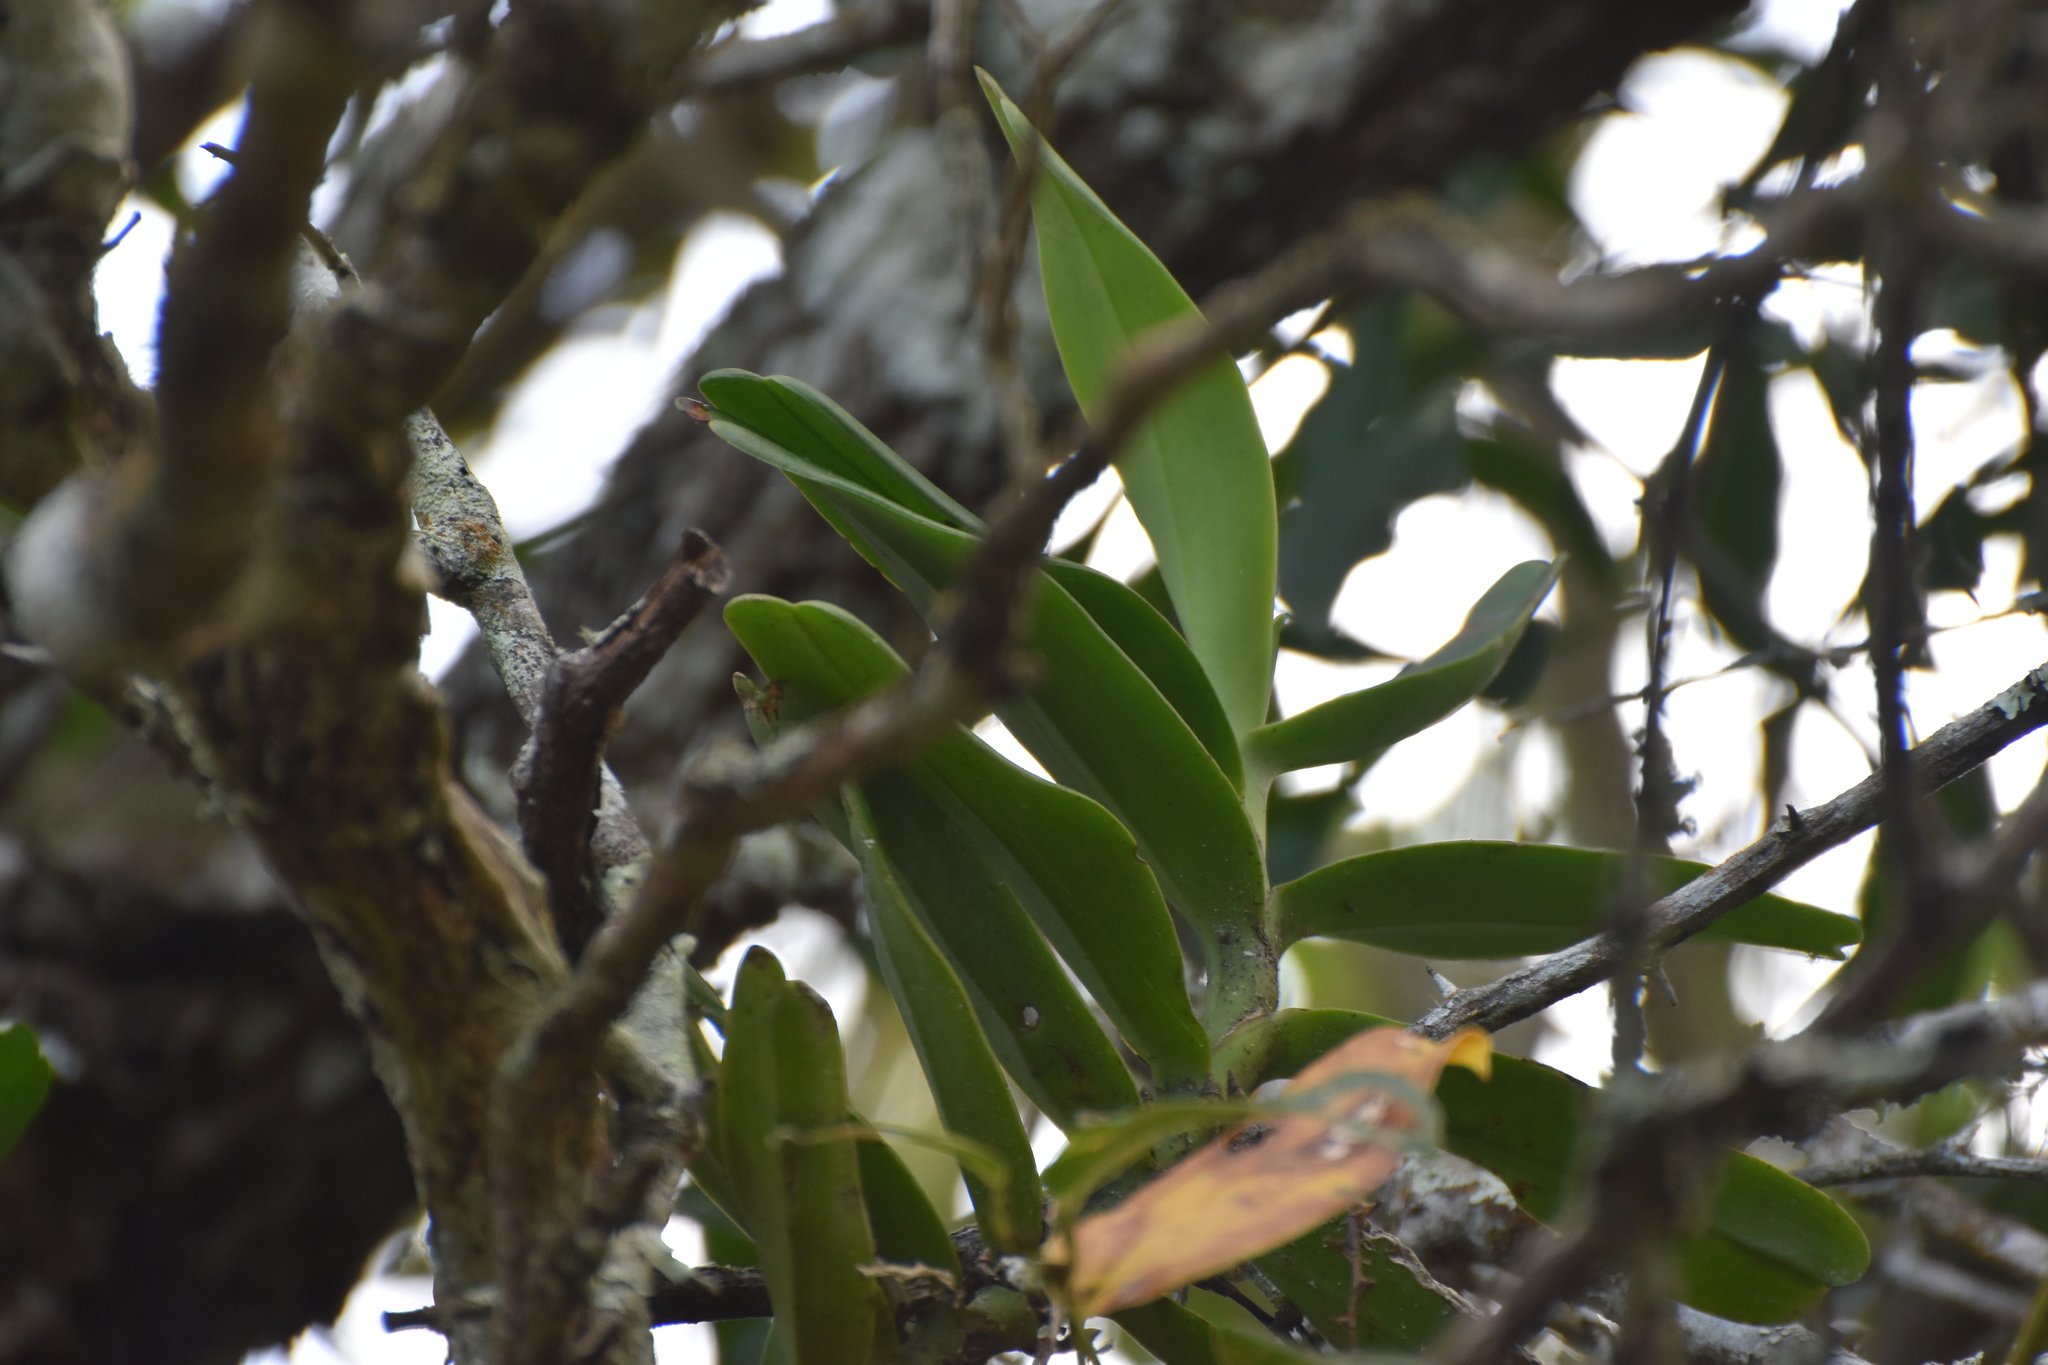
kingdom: Plantae
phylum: Tracheophyta
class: Liliopsida
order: Asparagales
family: Orchidaceae
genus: Cyrtorchis
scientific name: Cyrtorchis arcuata
